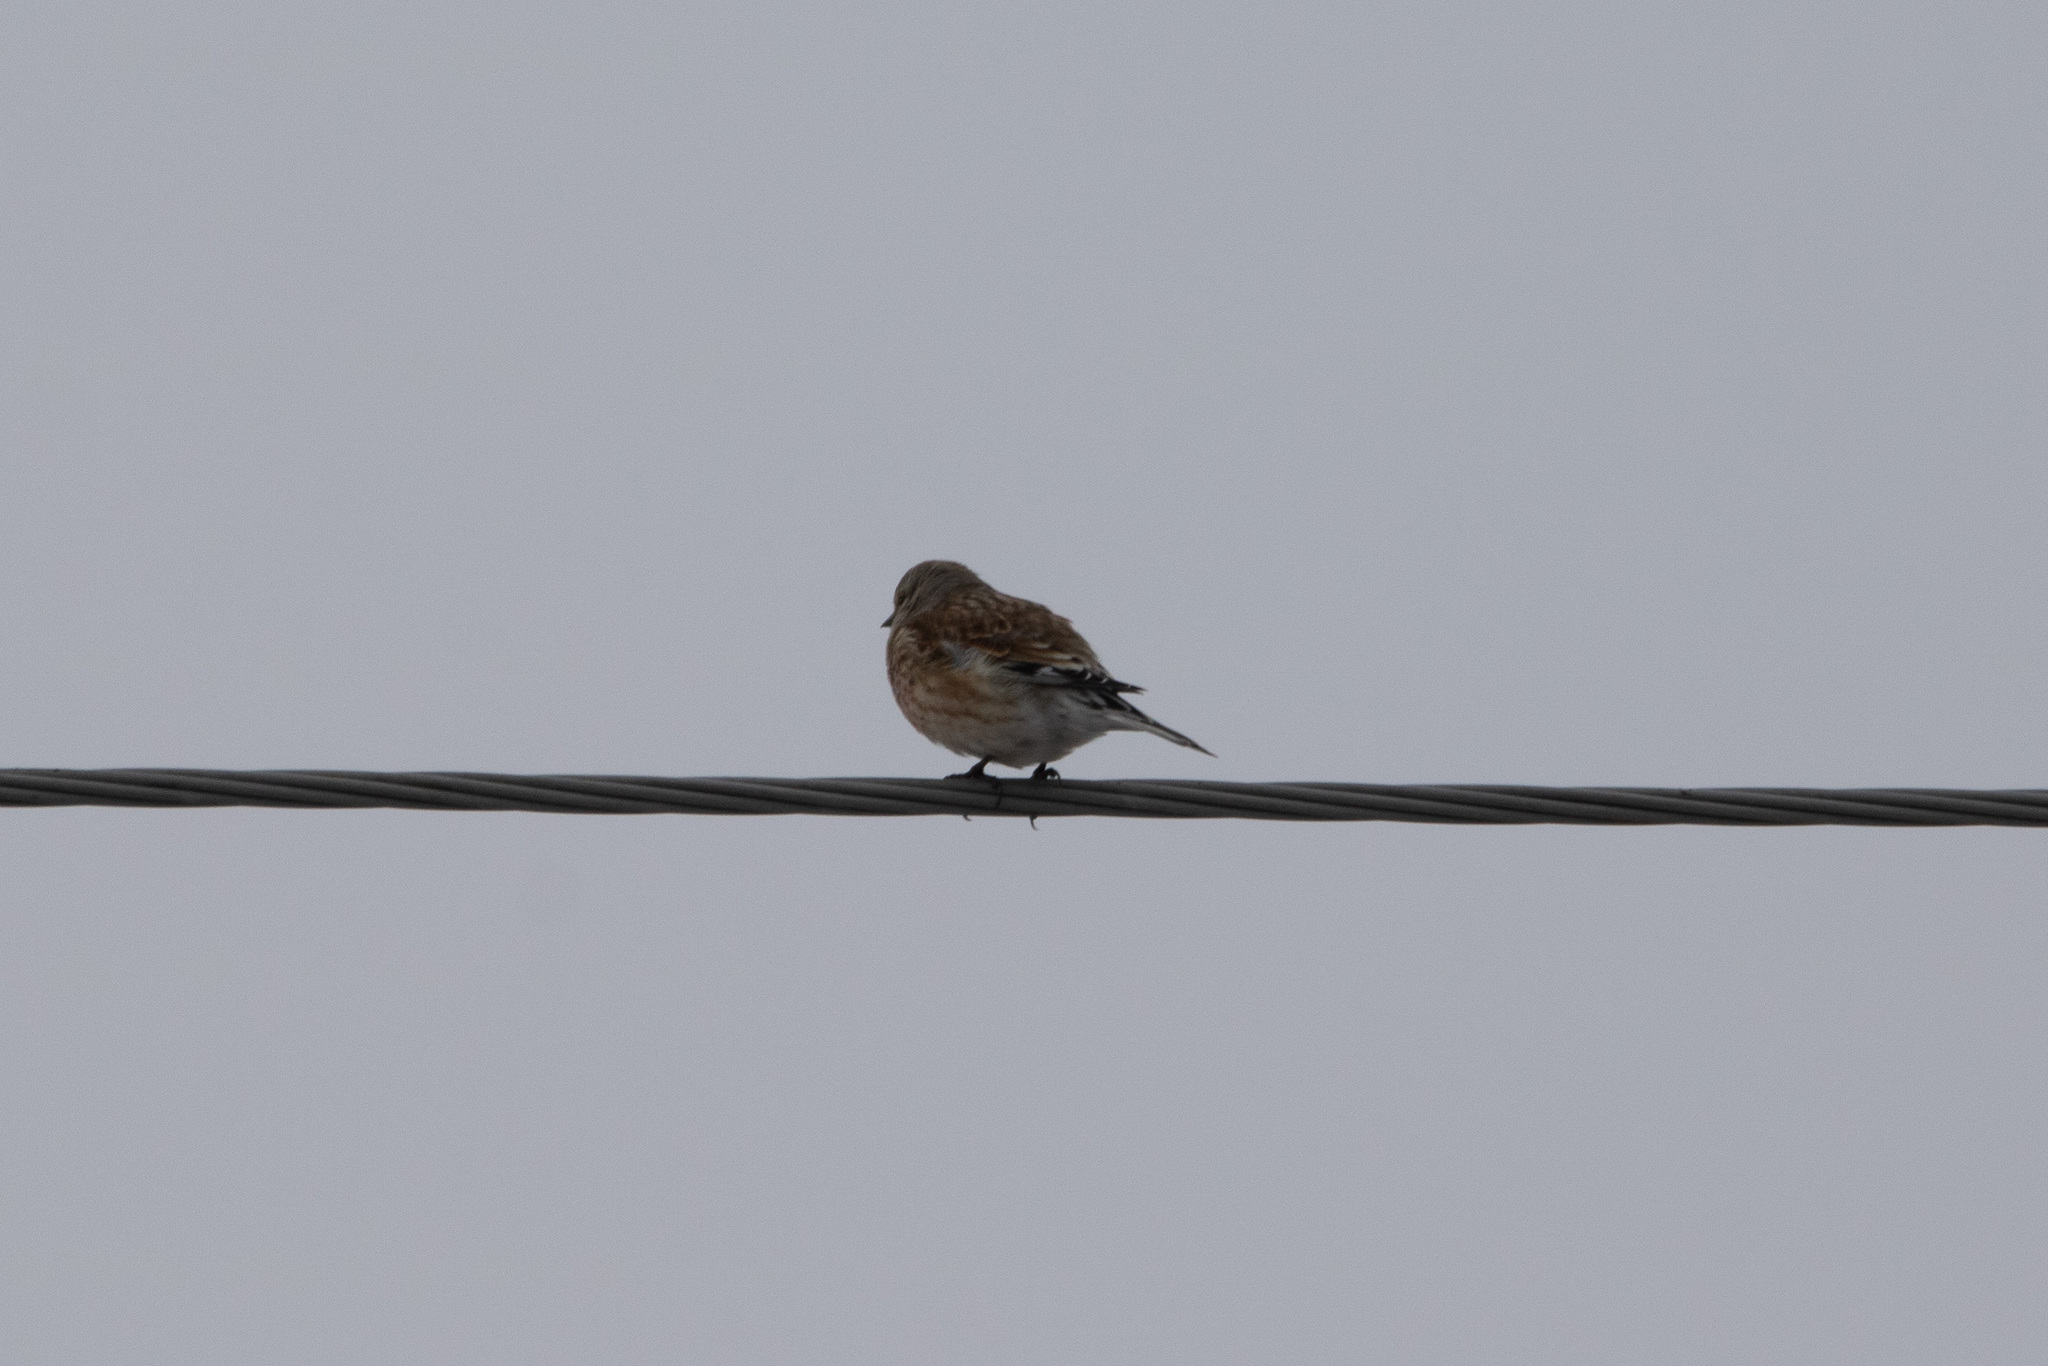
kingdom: Animalia
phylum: Chordata
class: Aves
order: Passeriformes
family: Fringillidae
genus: Linaria
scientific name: Linaria cannabina
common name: Common linnet
